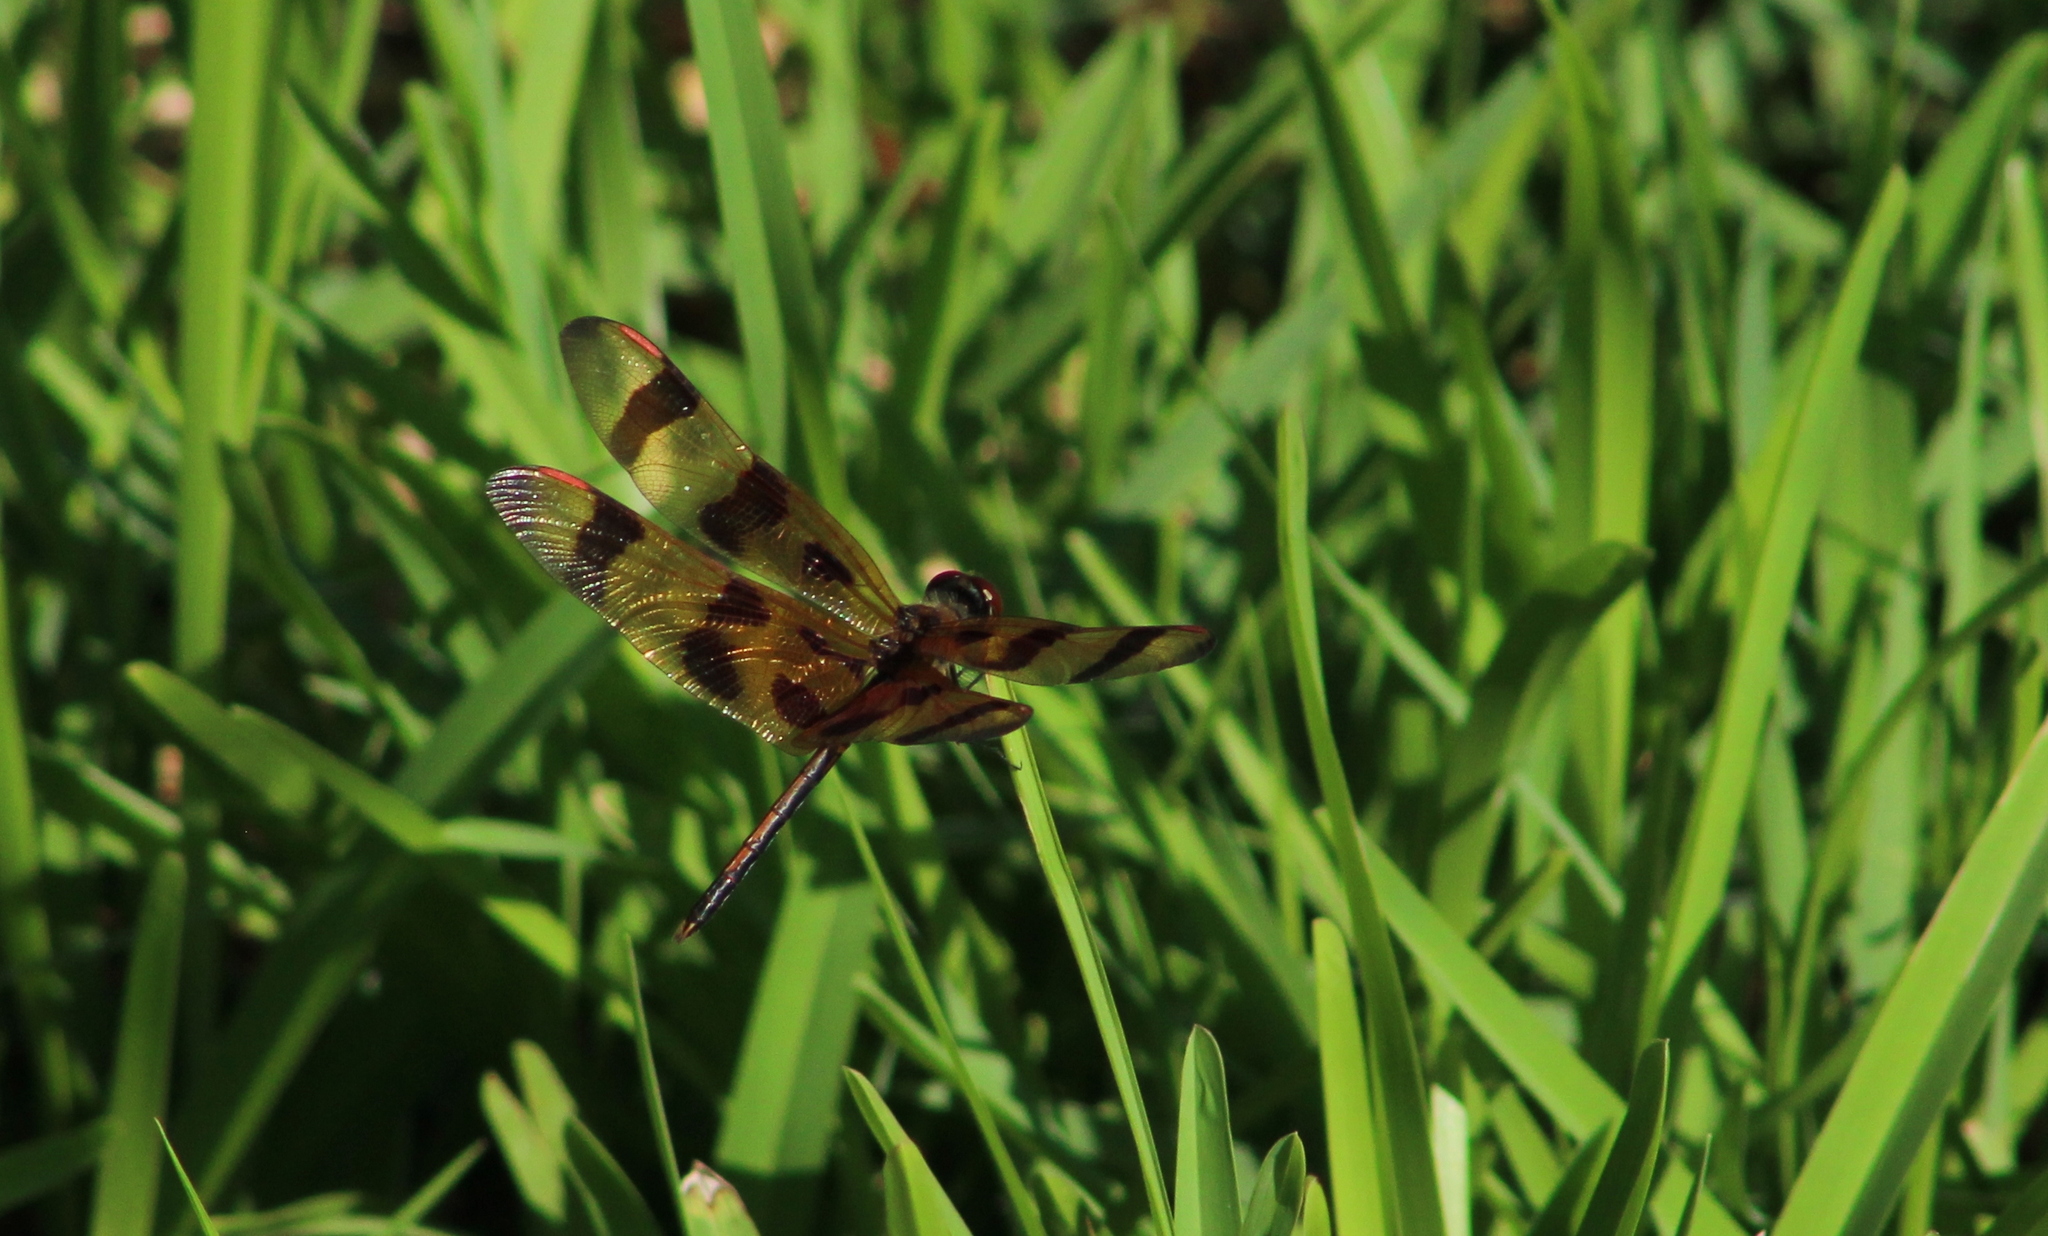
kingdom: Animalia
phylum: Arthropoda
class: Insecta
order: Odonata
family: Libellulidae
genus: Celithemis
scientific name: Celithemis eponina
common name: Halloween pennant
